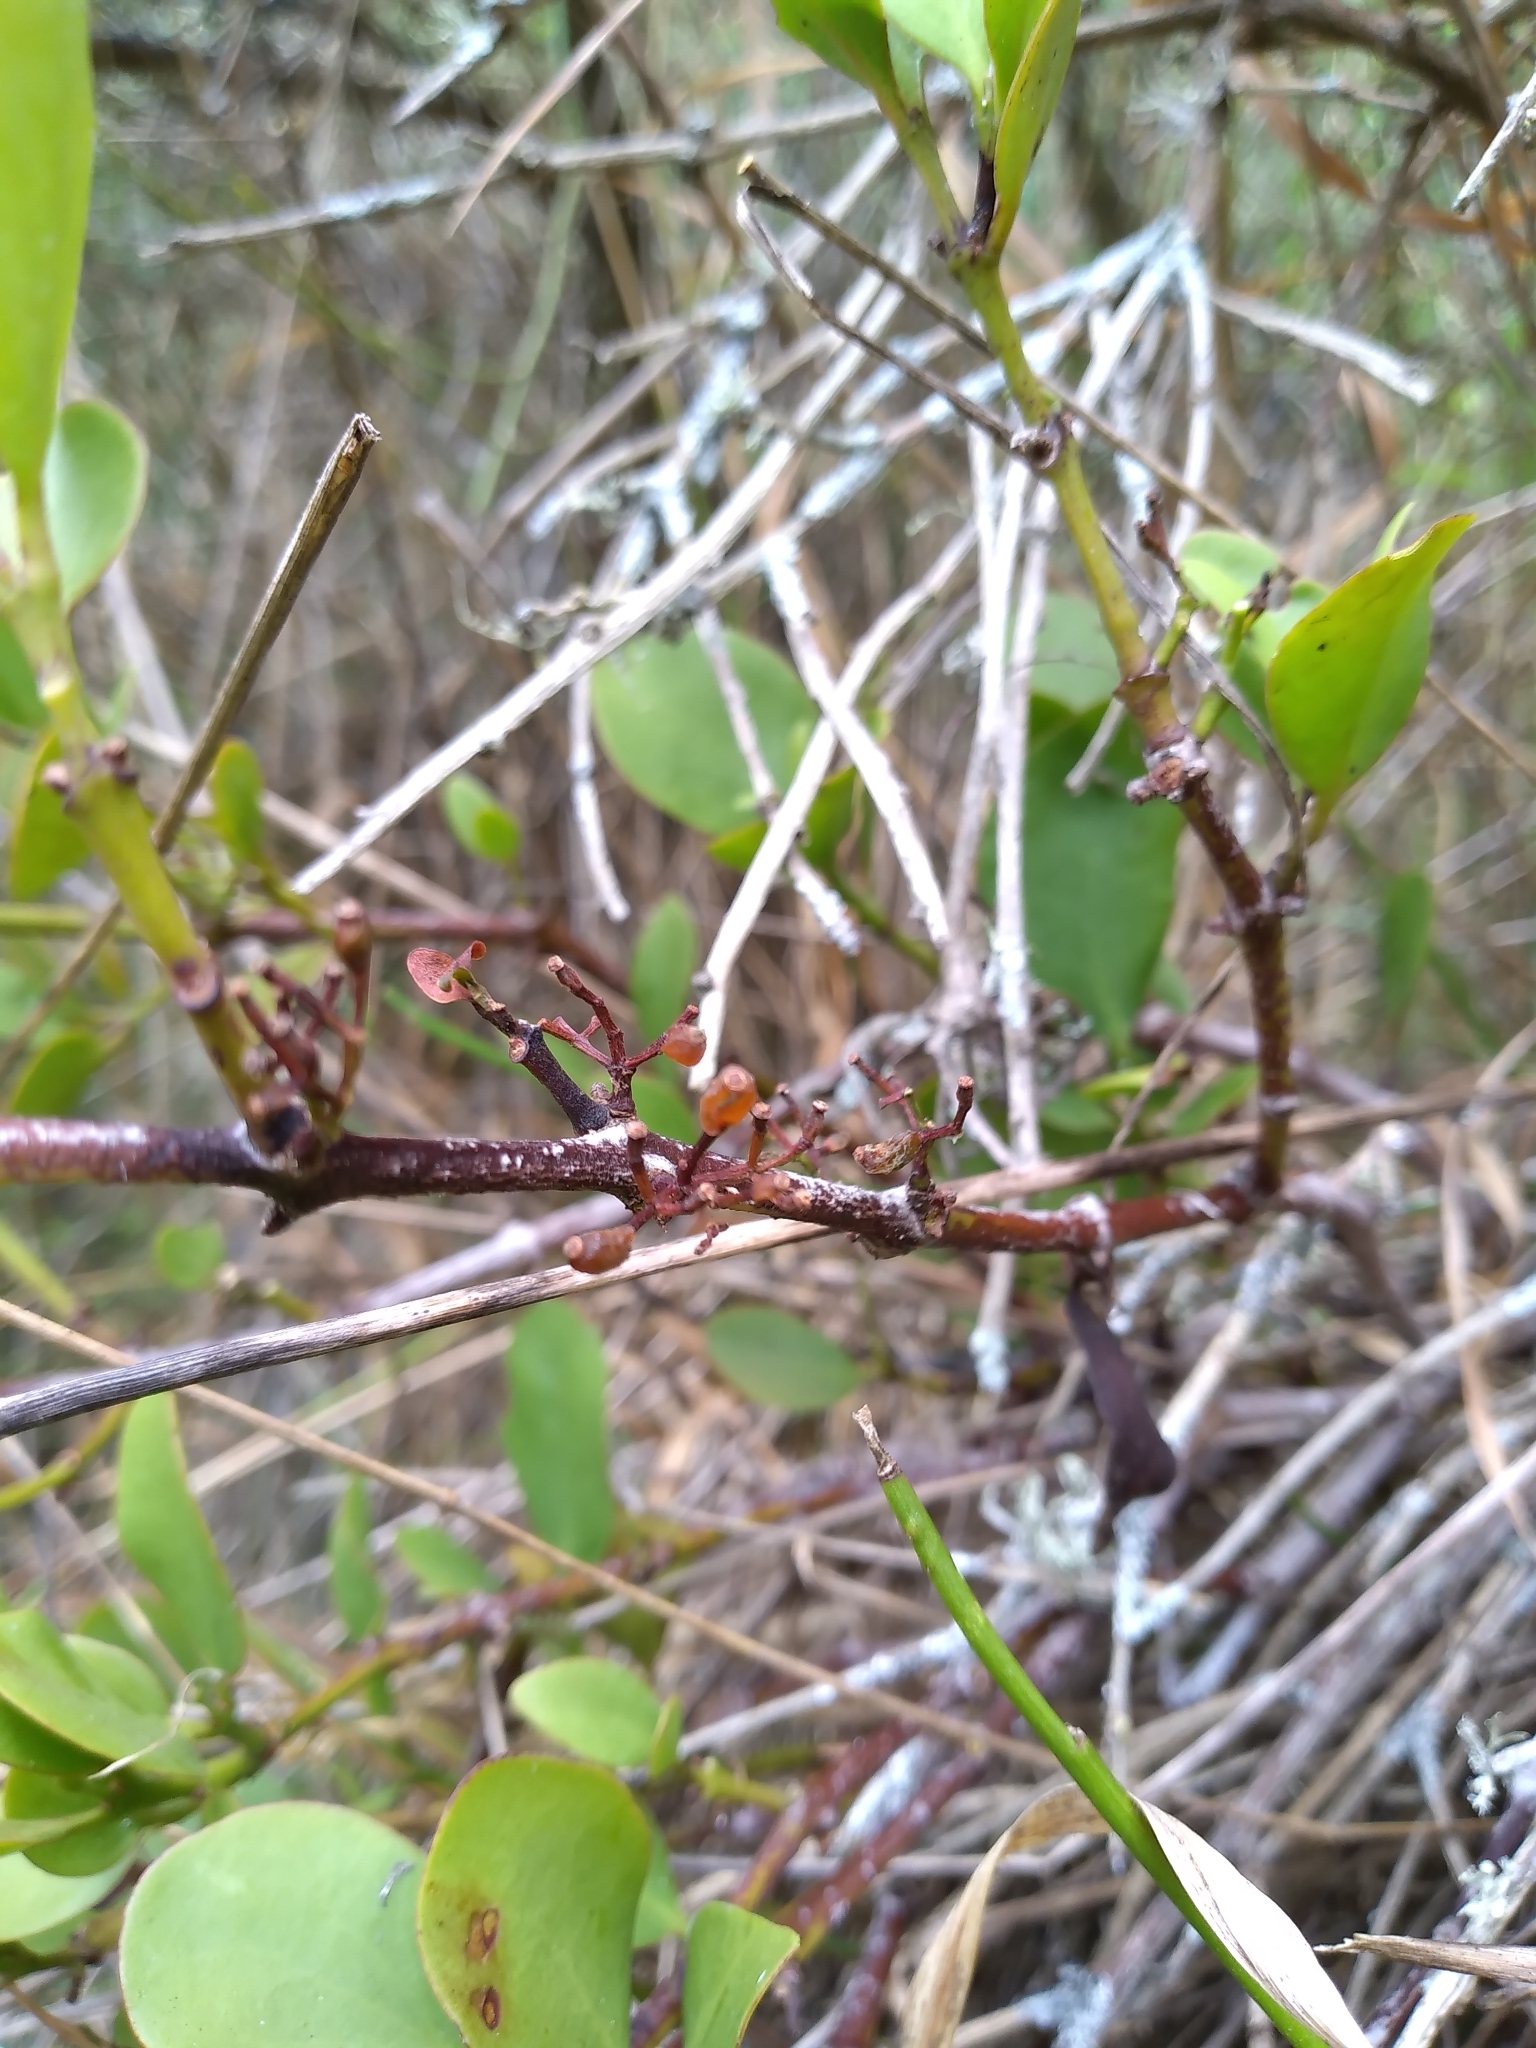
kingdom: Plantae
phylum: Tracheophyta
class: Magnoliopsida
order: Santalales
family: Loranthaceae
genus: Ileostylus
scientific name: Ileostylus micranthus
